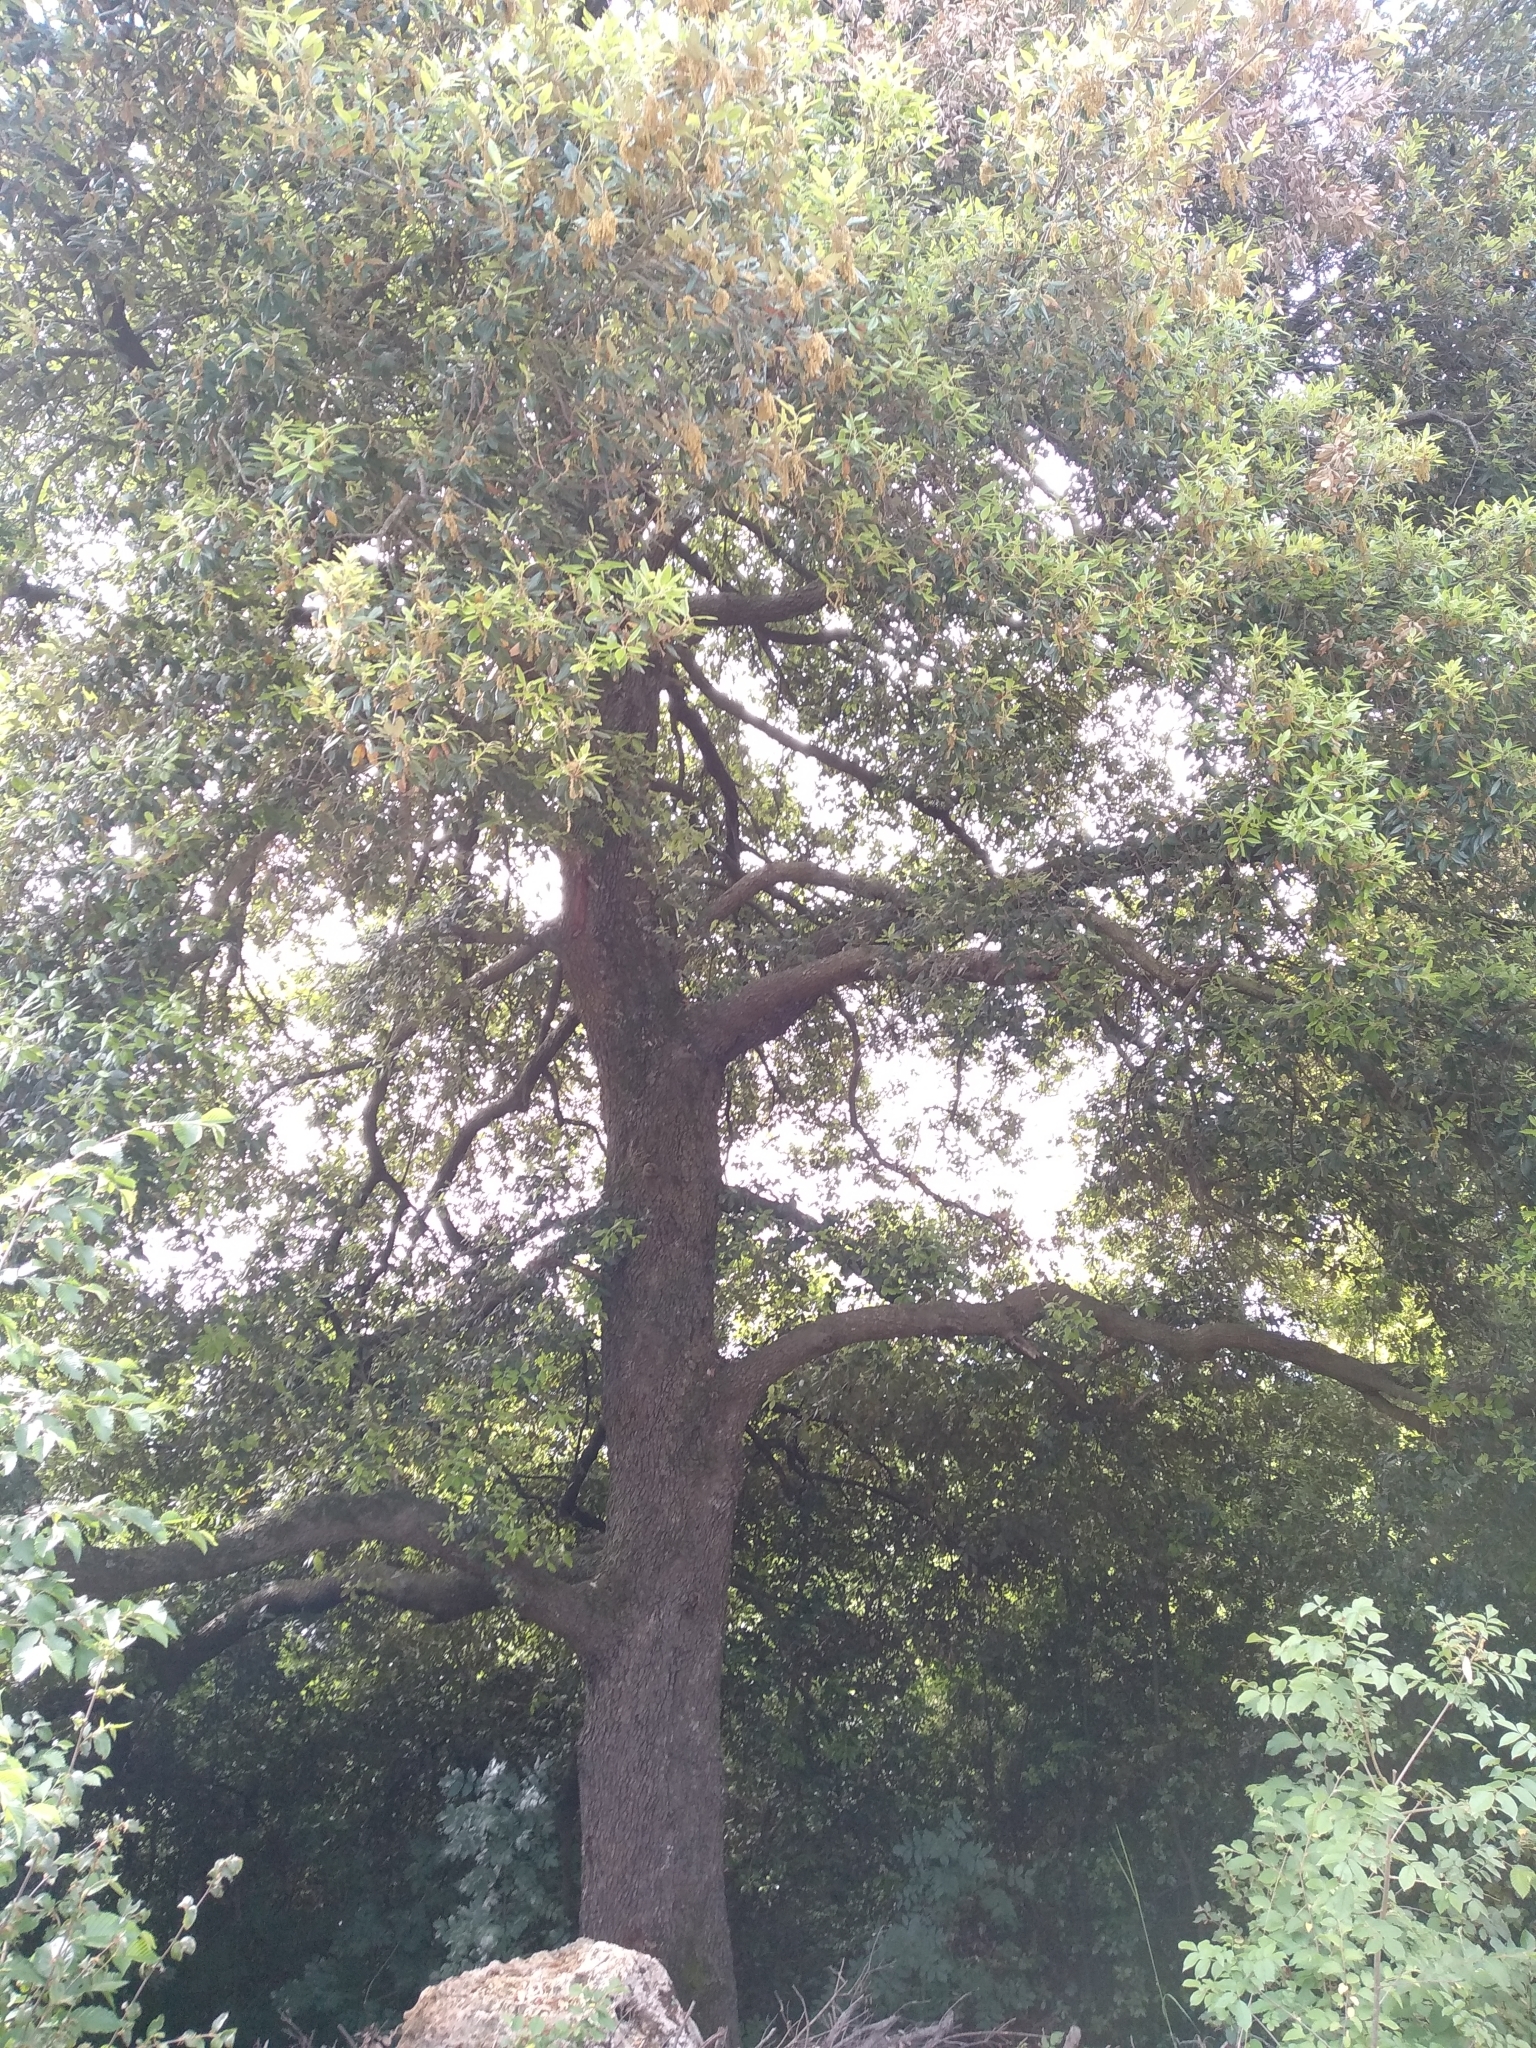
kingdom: Plantae
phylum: Tracheophyta
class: Magnoliopsida
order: Fagales
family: Fagaceae
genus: Quercus
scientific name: Quercus ilex
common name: Evergreen oak
